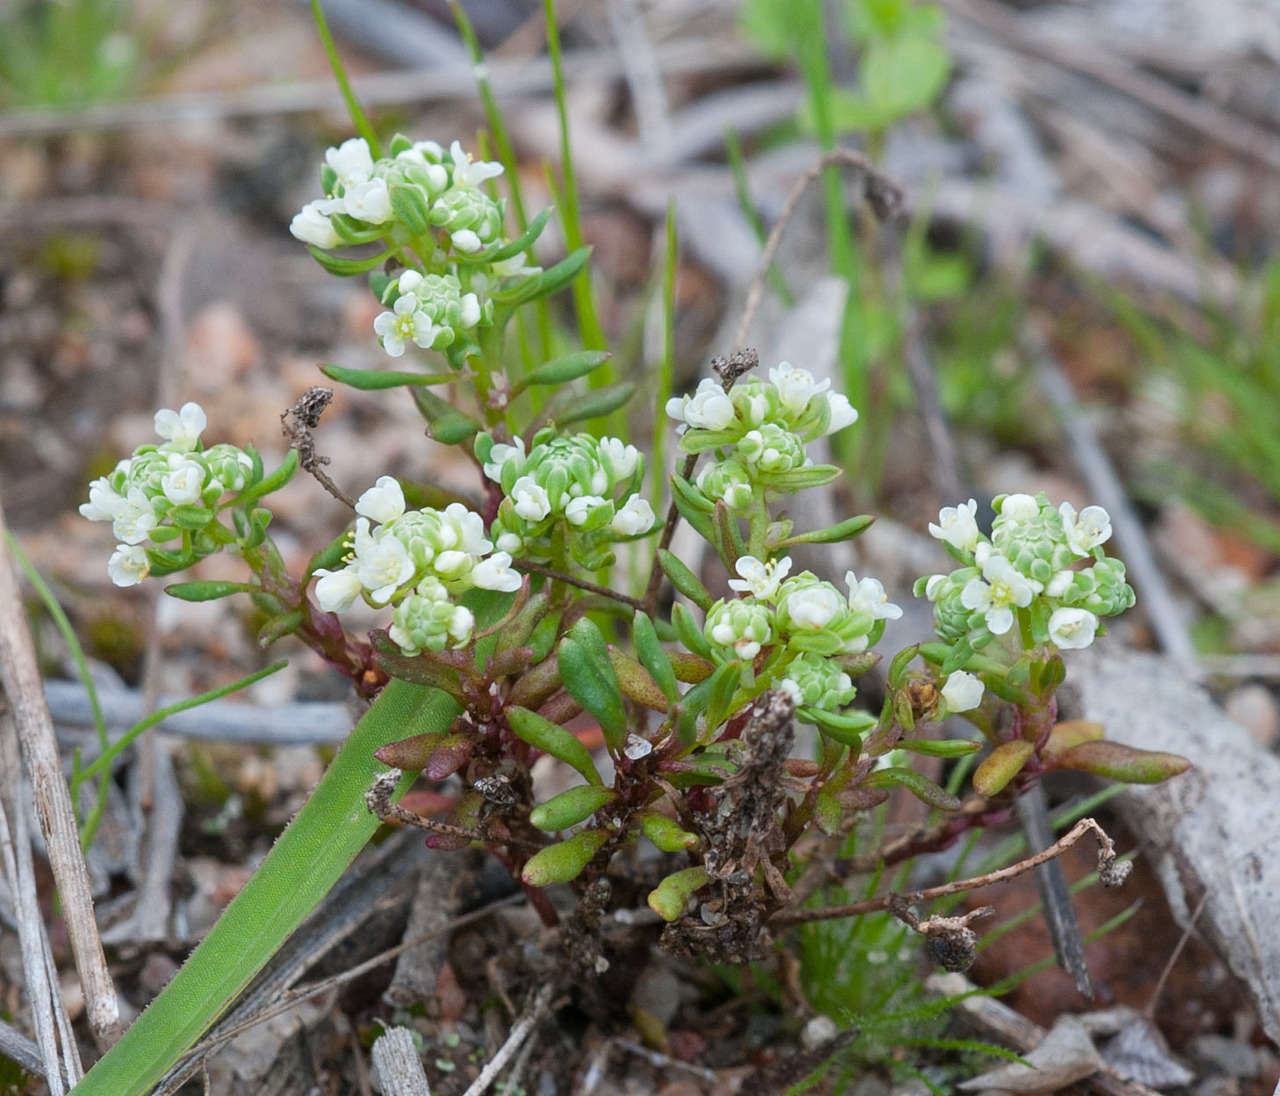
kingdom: Plantae
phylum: Tracheophyta
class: Magnoliopsida
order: Malpighiales
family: Phyllanthaceae
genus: Poranthera
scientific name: Poranthera microphylla
